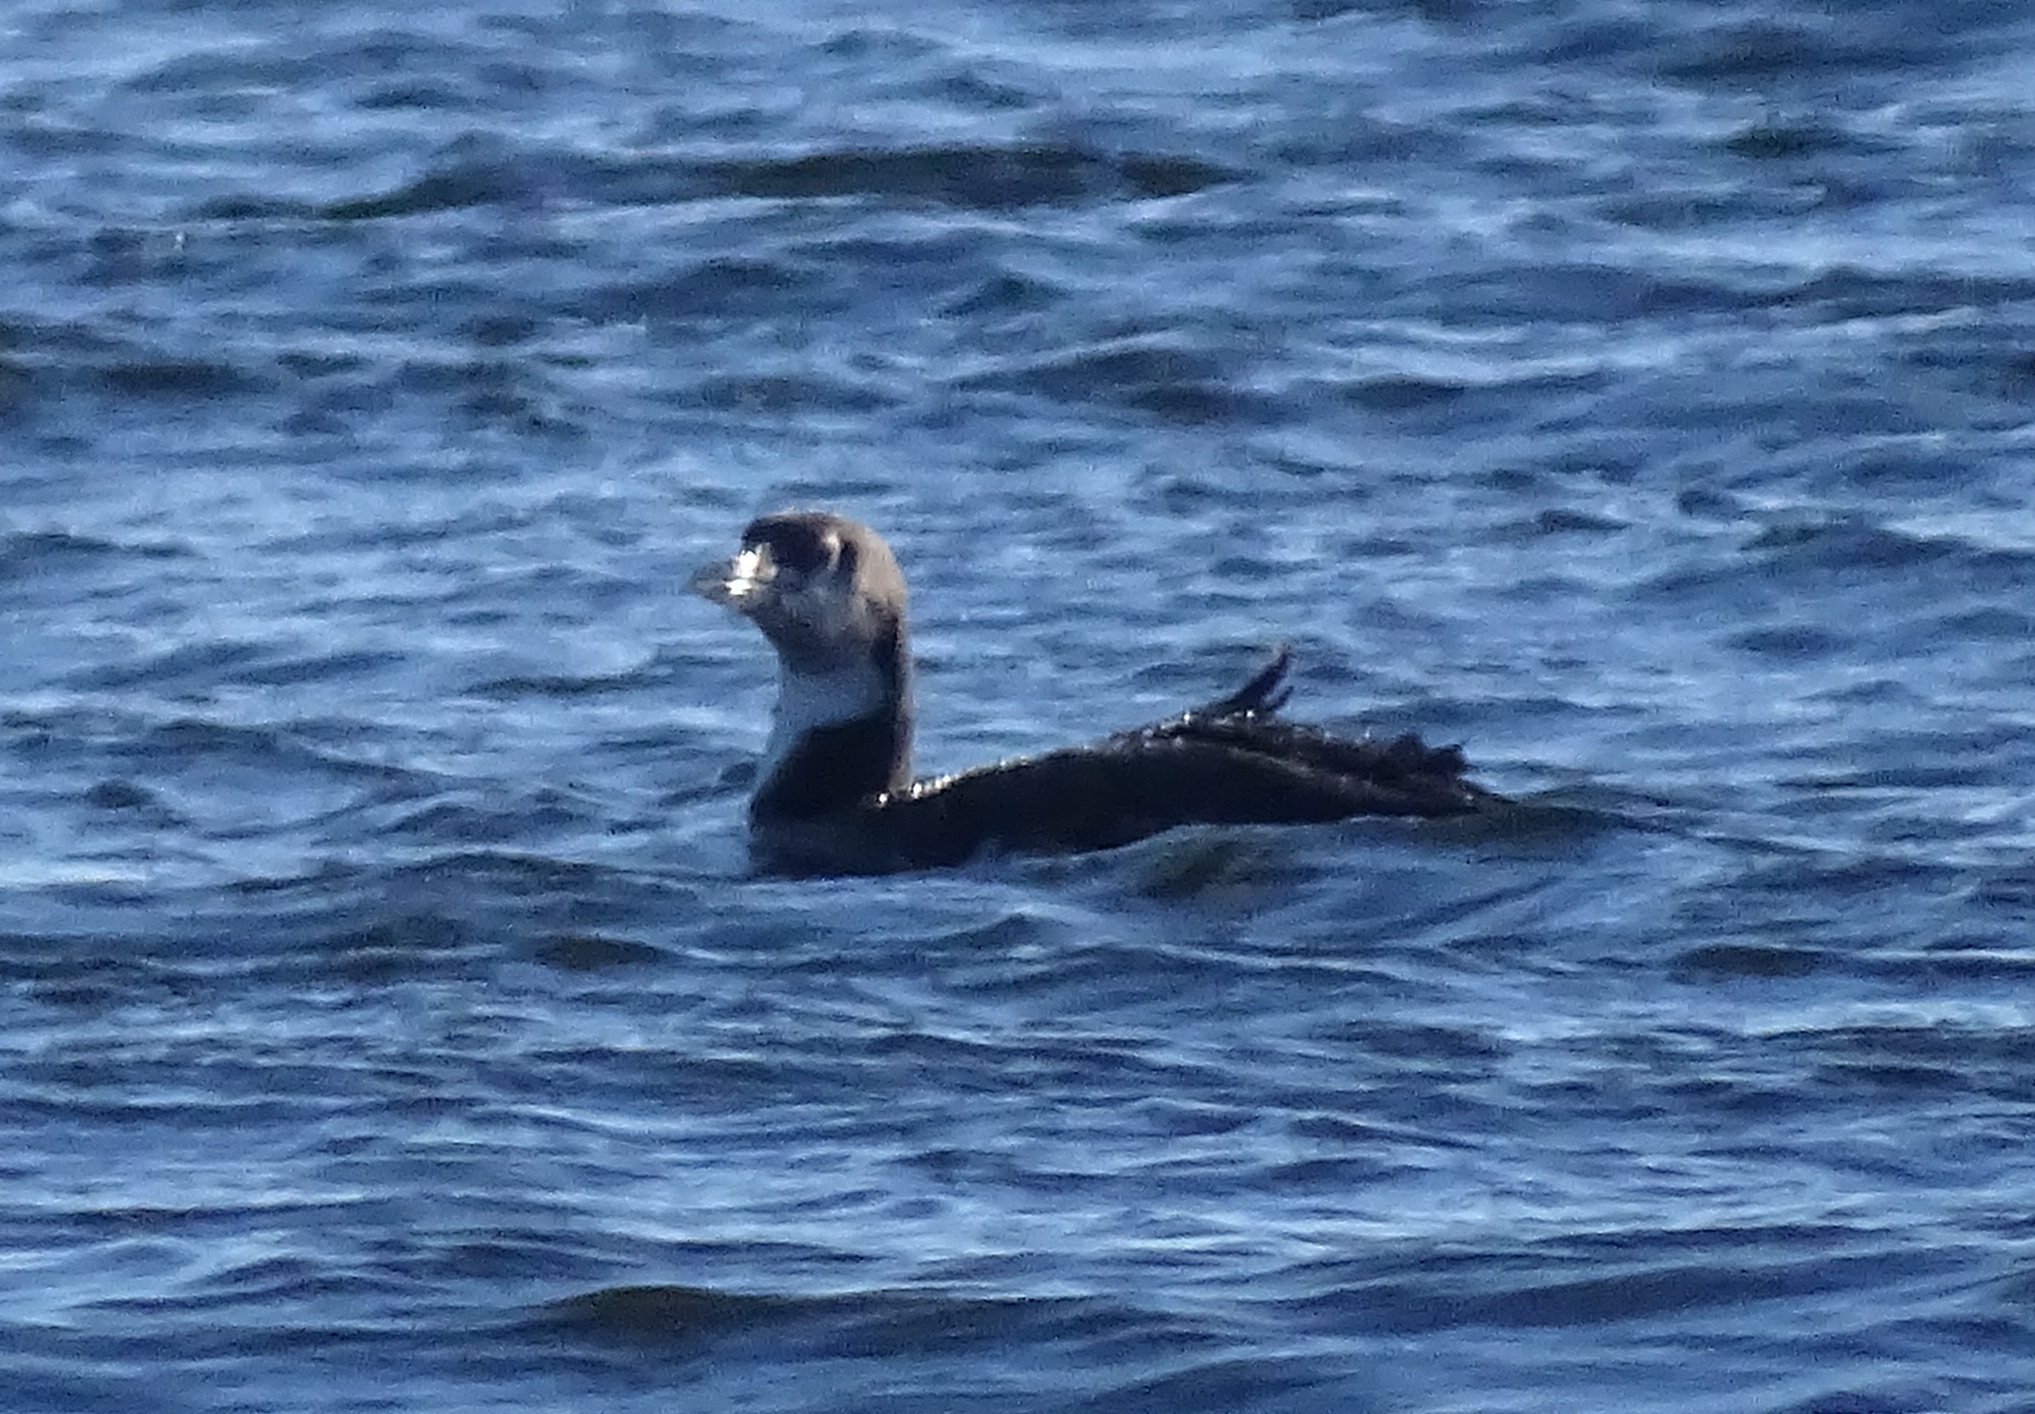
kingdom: Animalia
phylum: Chordata
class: Aves
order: Gaviiformes
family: Gaviidae
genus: Gavia
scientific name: Gavia immer
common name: Common loon
